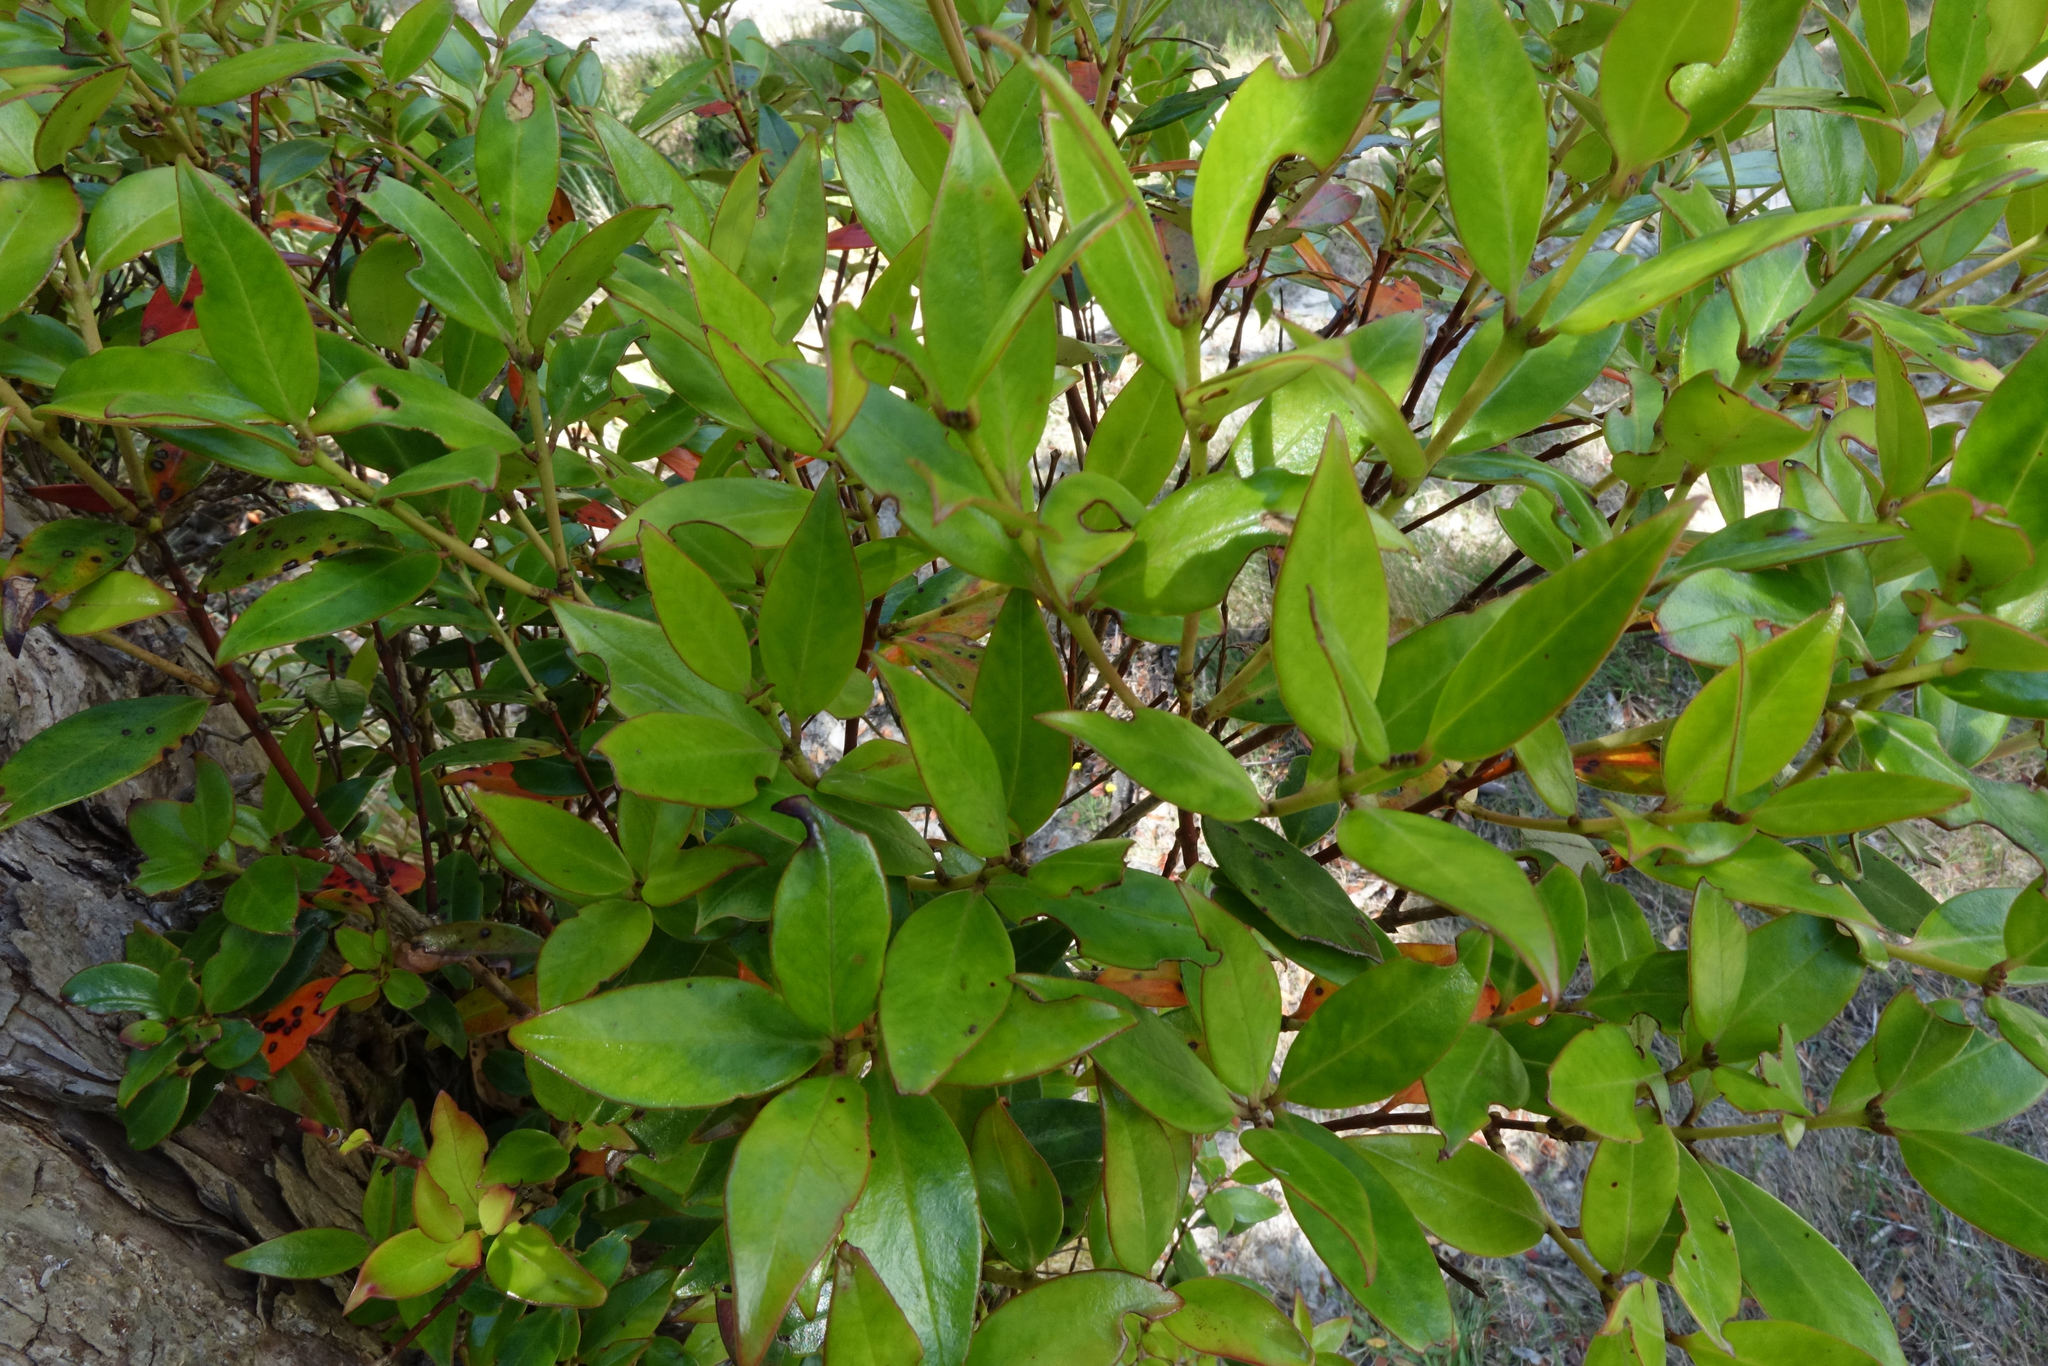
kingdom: Plantae
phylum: Tracheophyta
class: Magnoliopsida
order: Myrtales
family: Myrtaceae
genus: Metrosideros
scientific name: Metrosideros umbellata
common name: Southern rata
